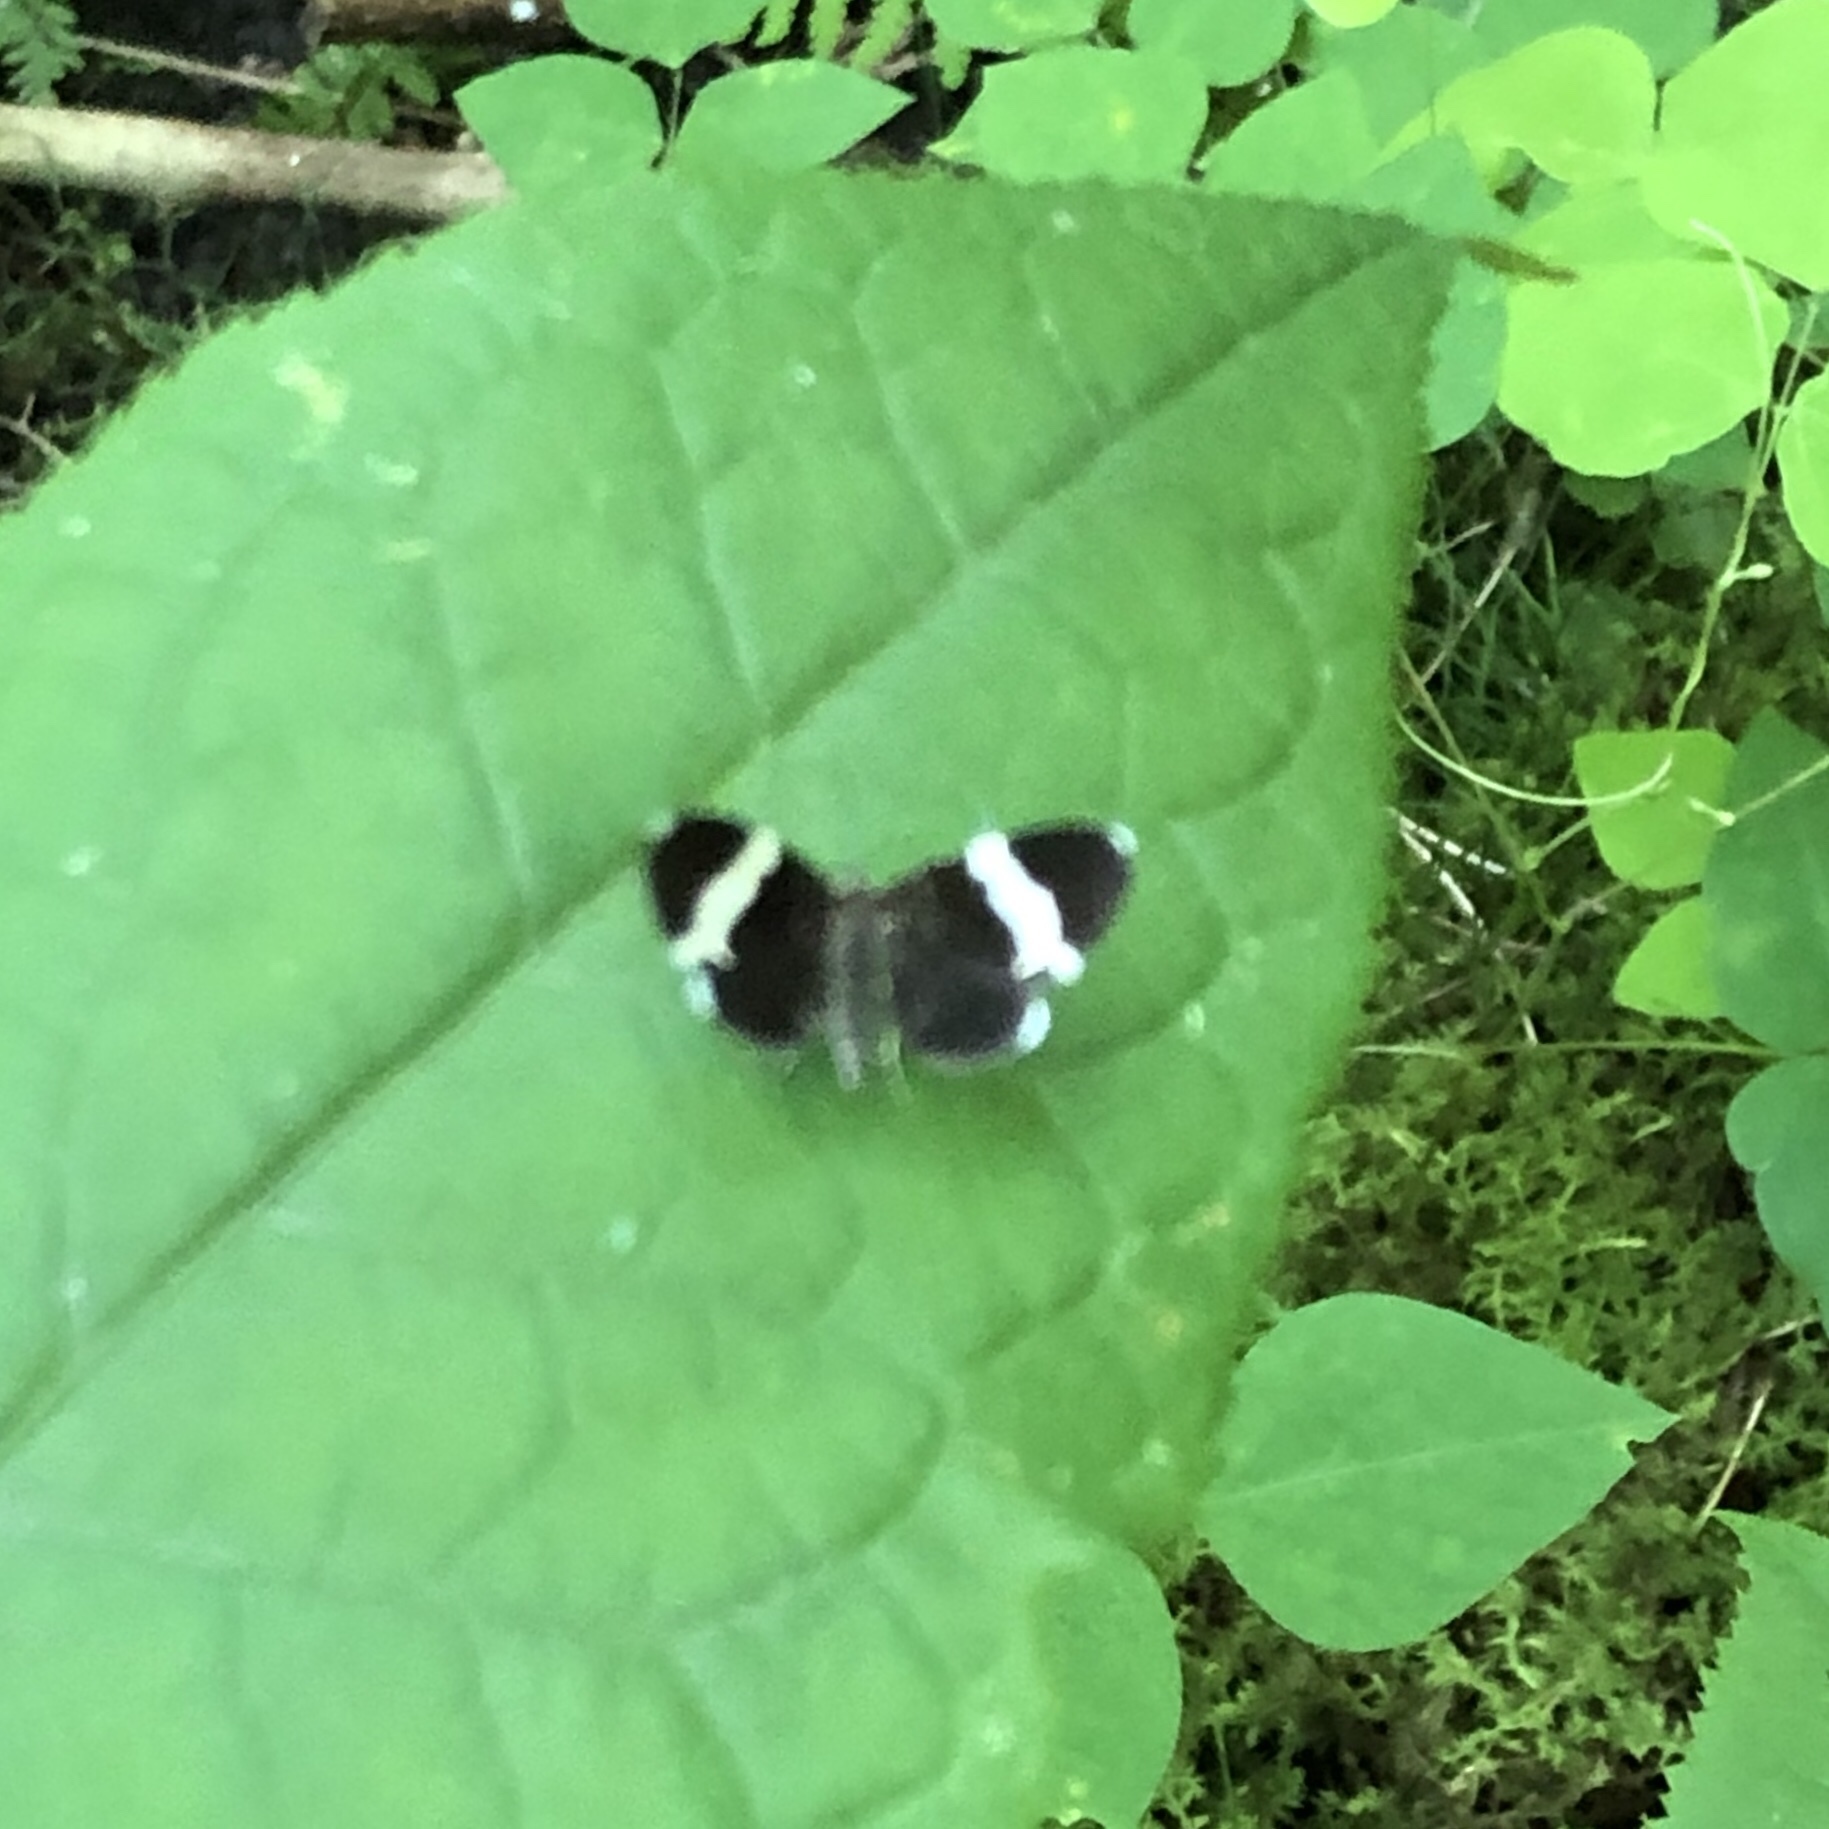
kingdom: Animalia
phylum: Arthropoda
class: Insecta
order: Lepidoptera
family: Geometridae
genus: Trichodezia
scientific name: Trichodezia albovittata
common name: White striped black
